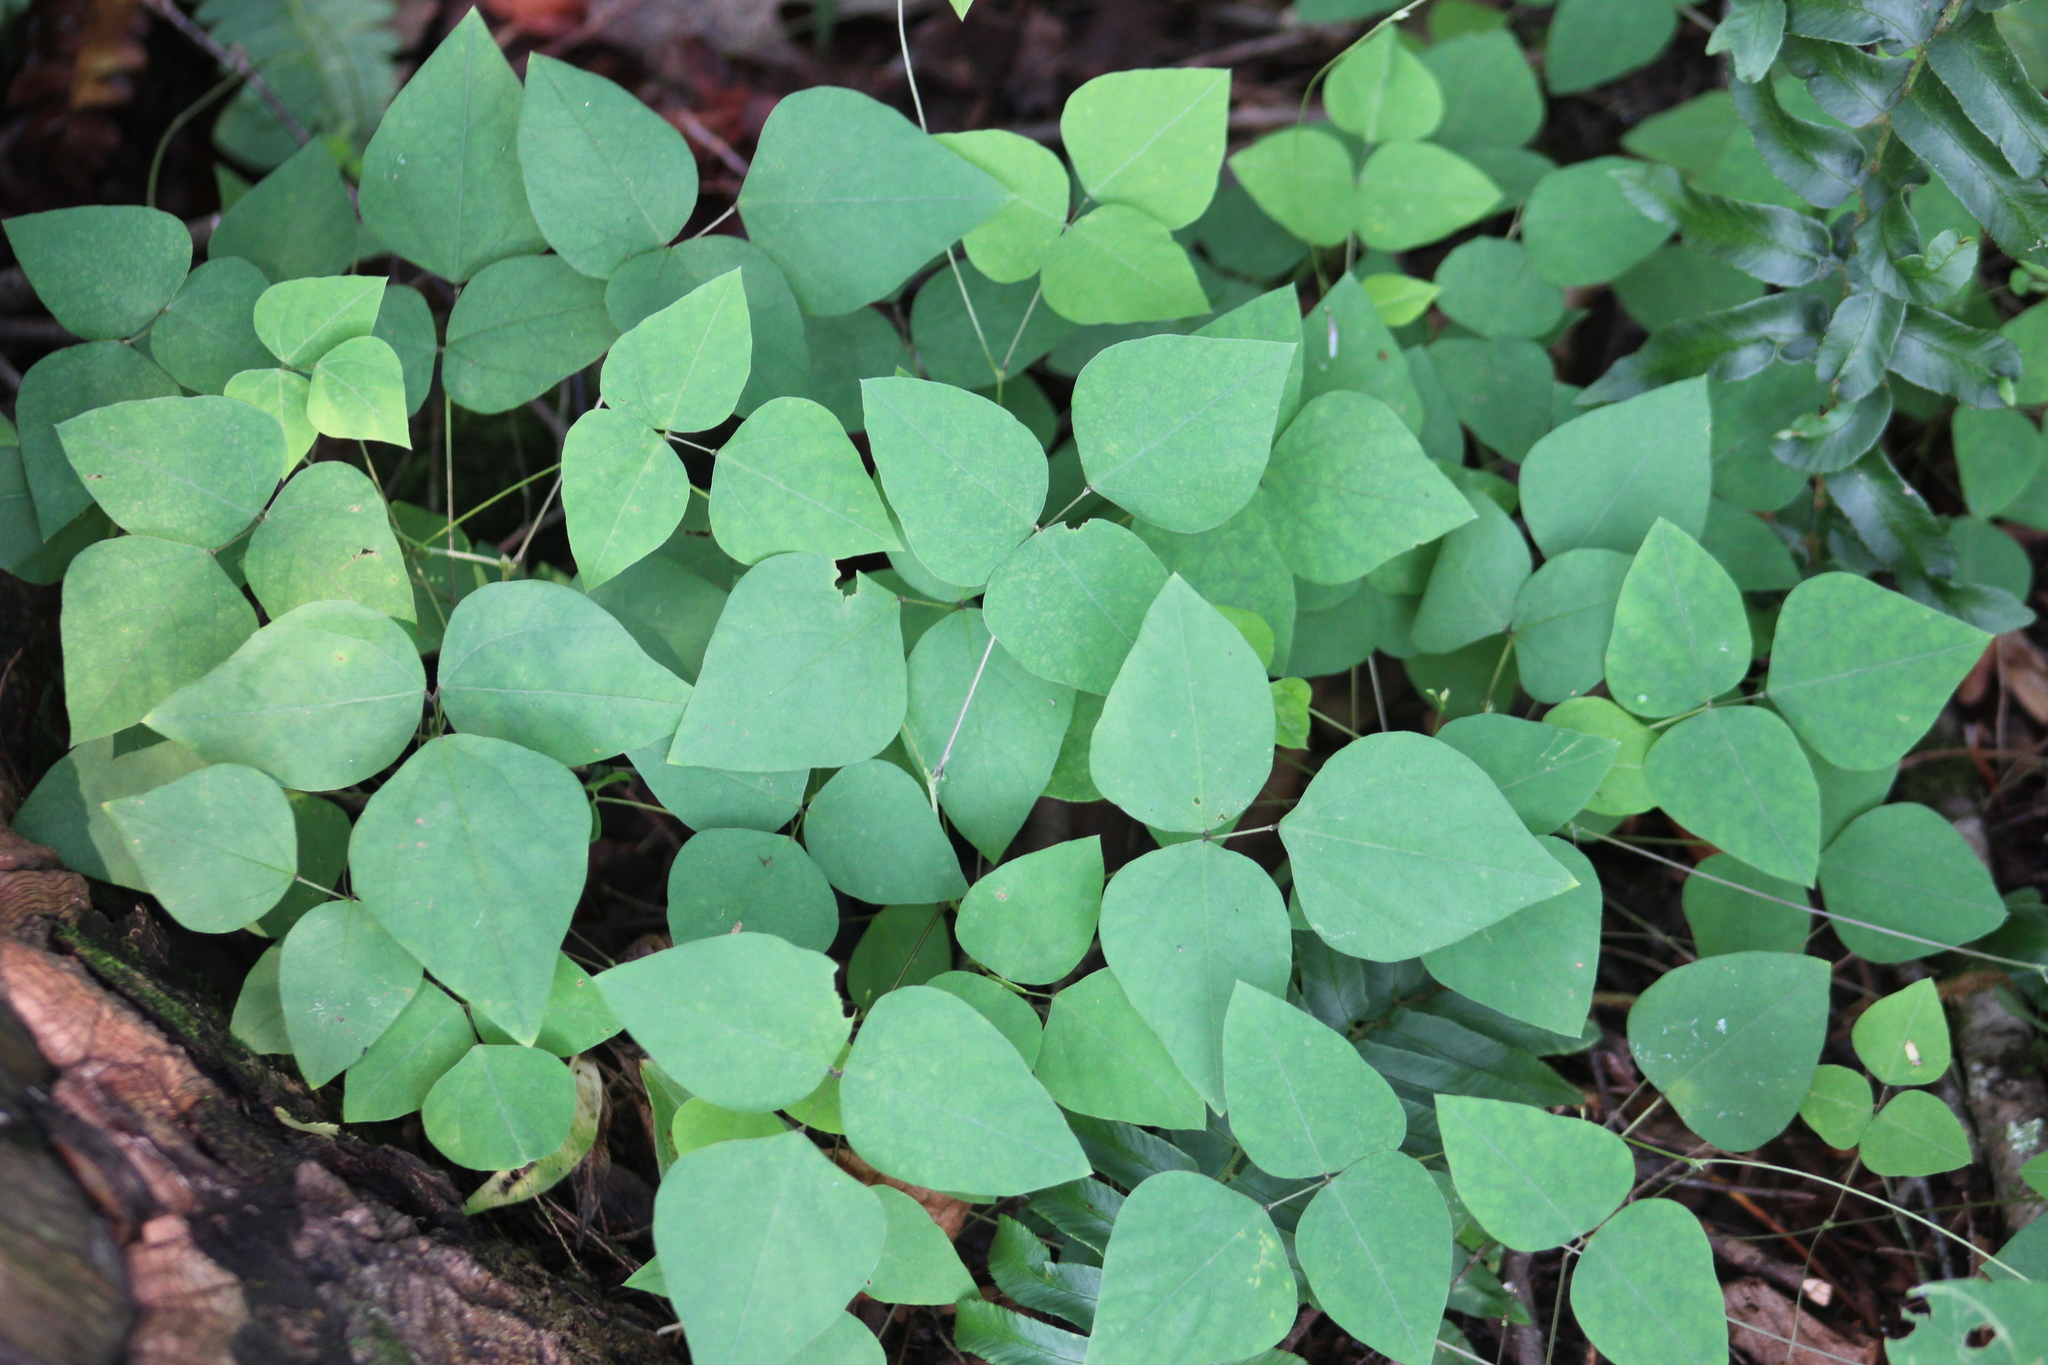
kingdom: Plantae
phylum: Tracheophyta
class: Magnoliopsida
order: Fabales
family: Fabaceae
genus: Amphicarpaea
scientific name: Amphicarpaea bracteata
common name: American hog peanut
